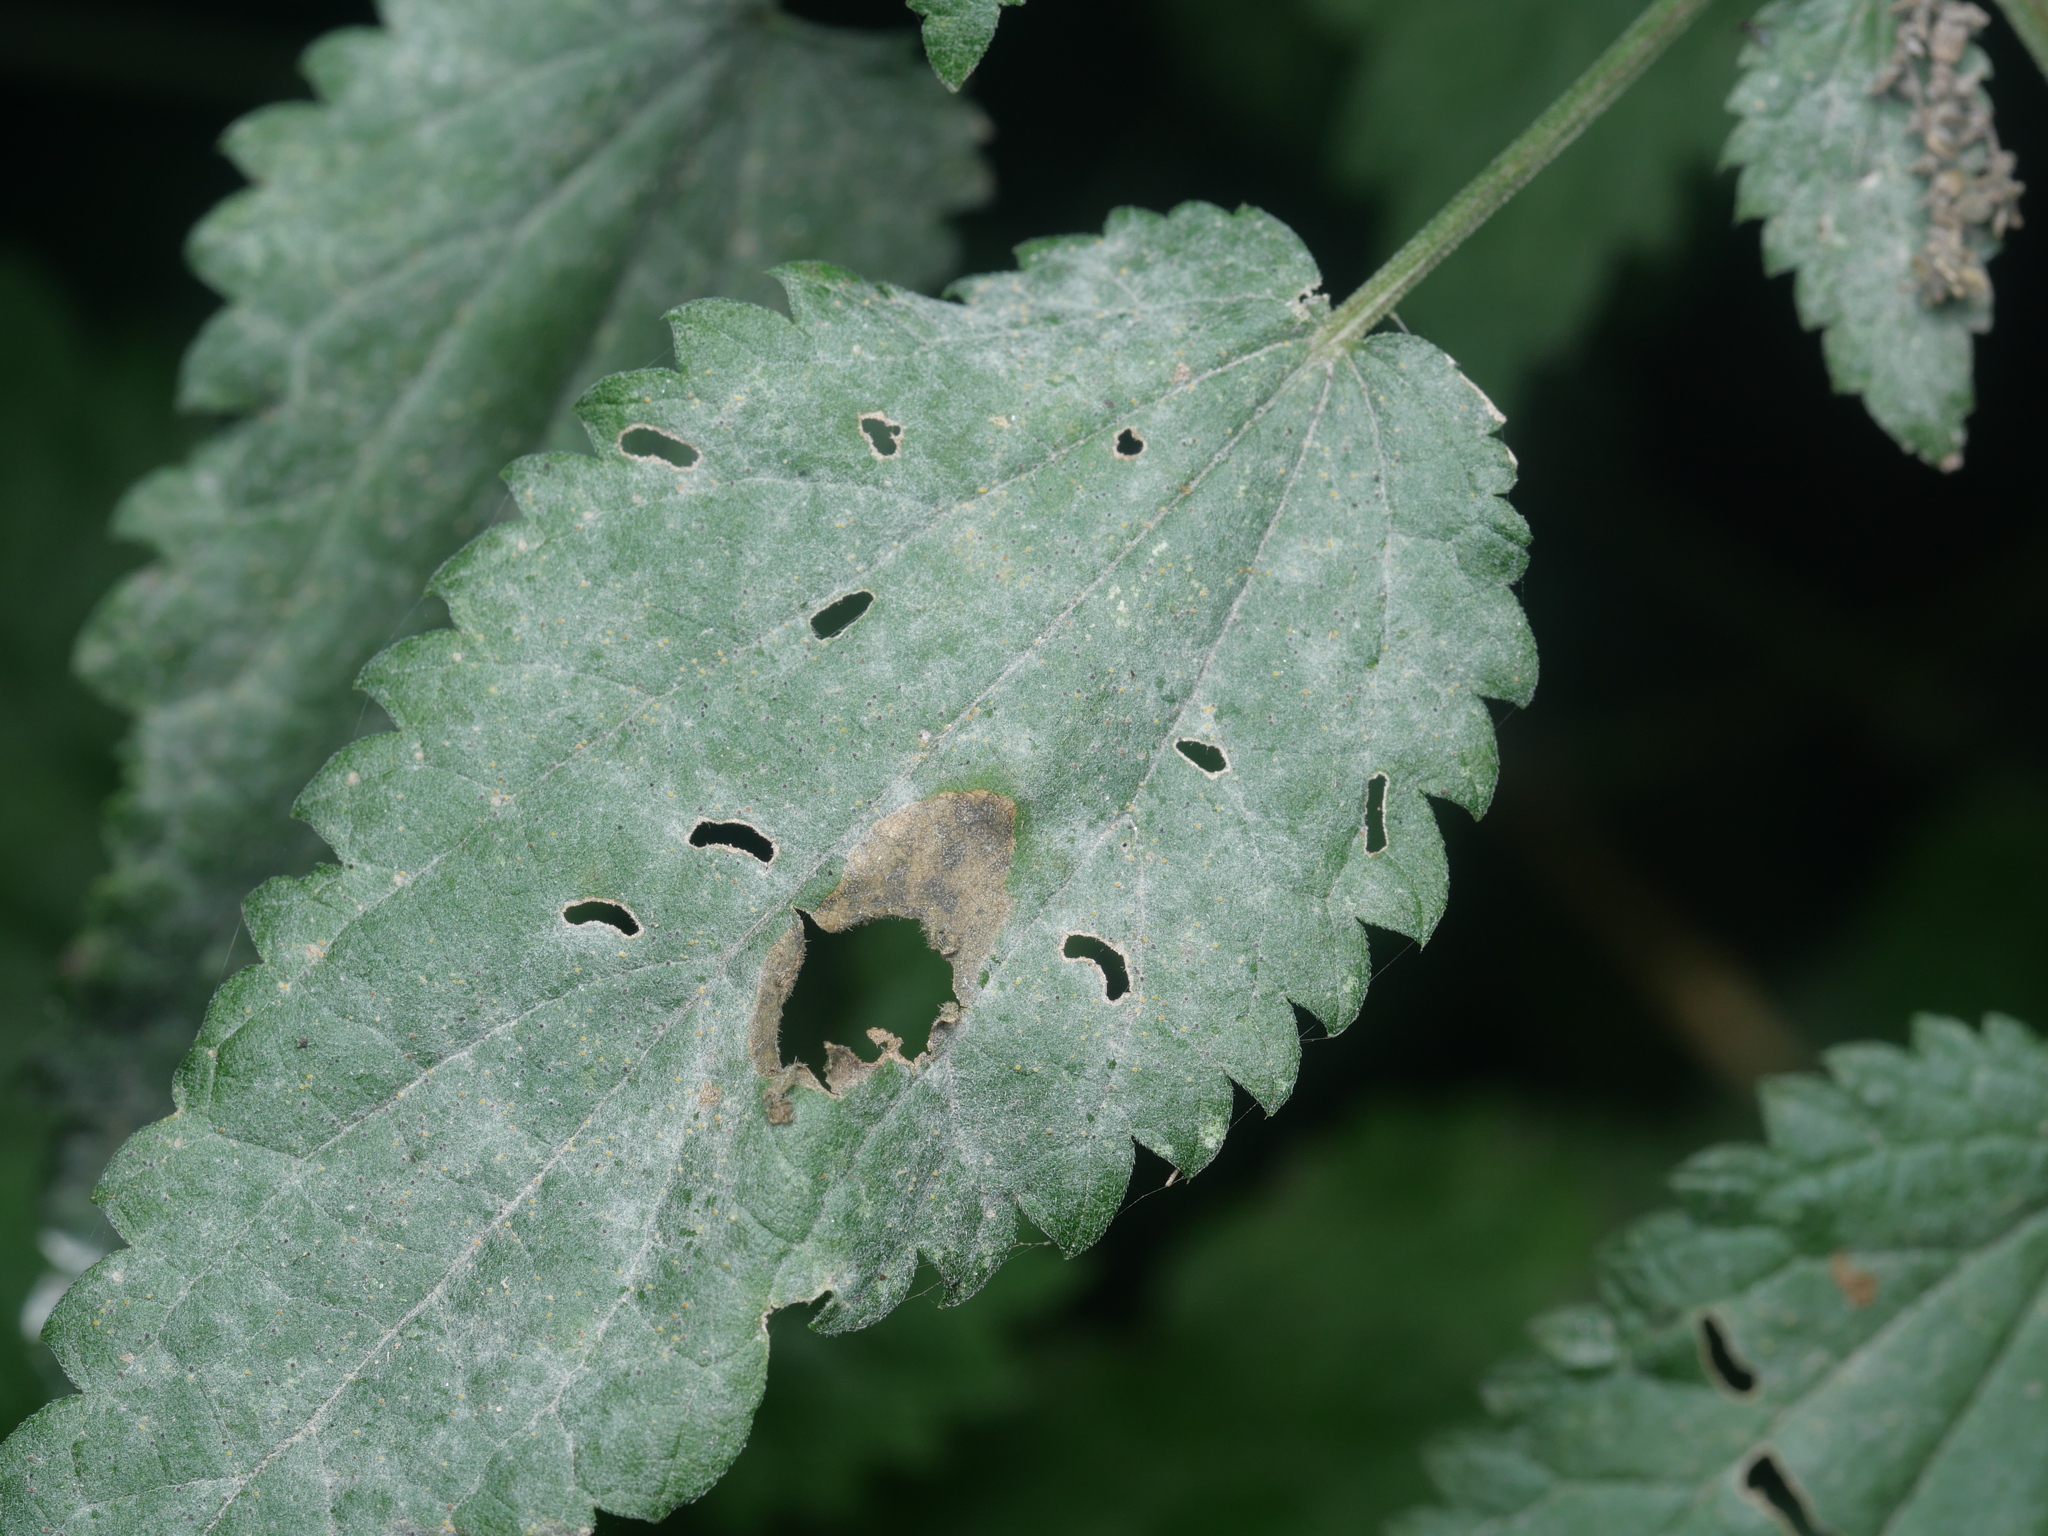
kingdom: Fungi
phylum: Ascomycota
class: Leotiomycetes
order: Helotiales
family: Erysiphaceae
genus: Erysiphe
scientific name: Erysiphe urticae
